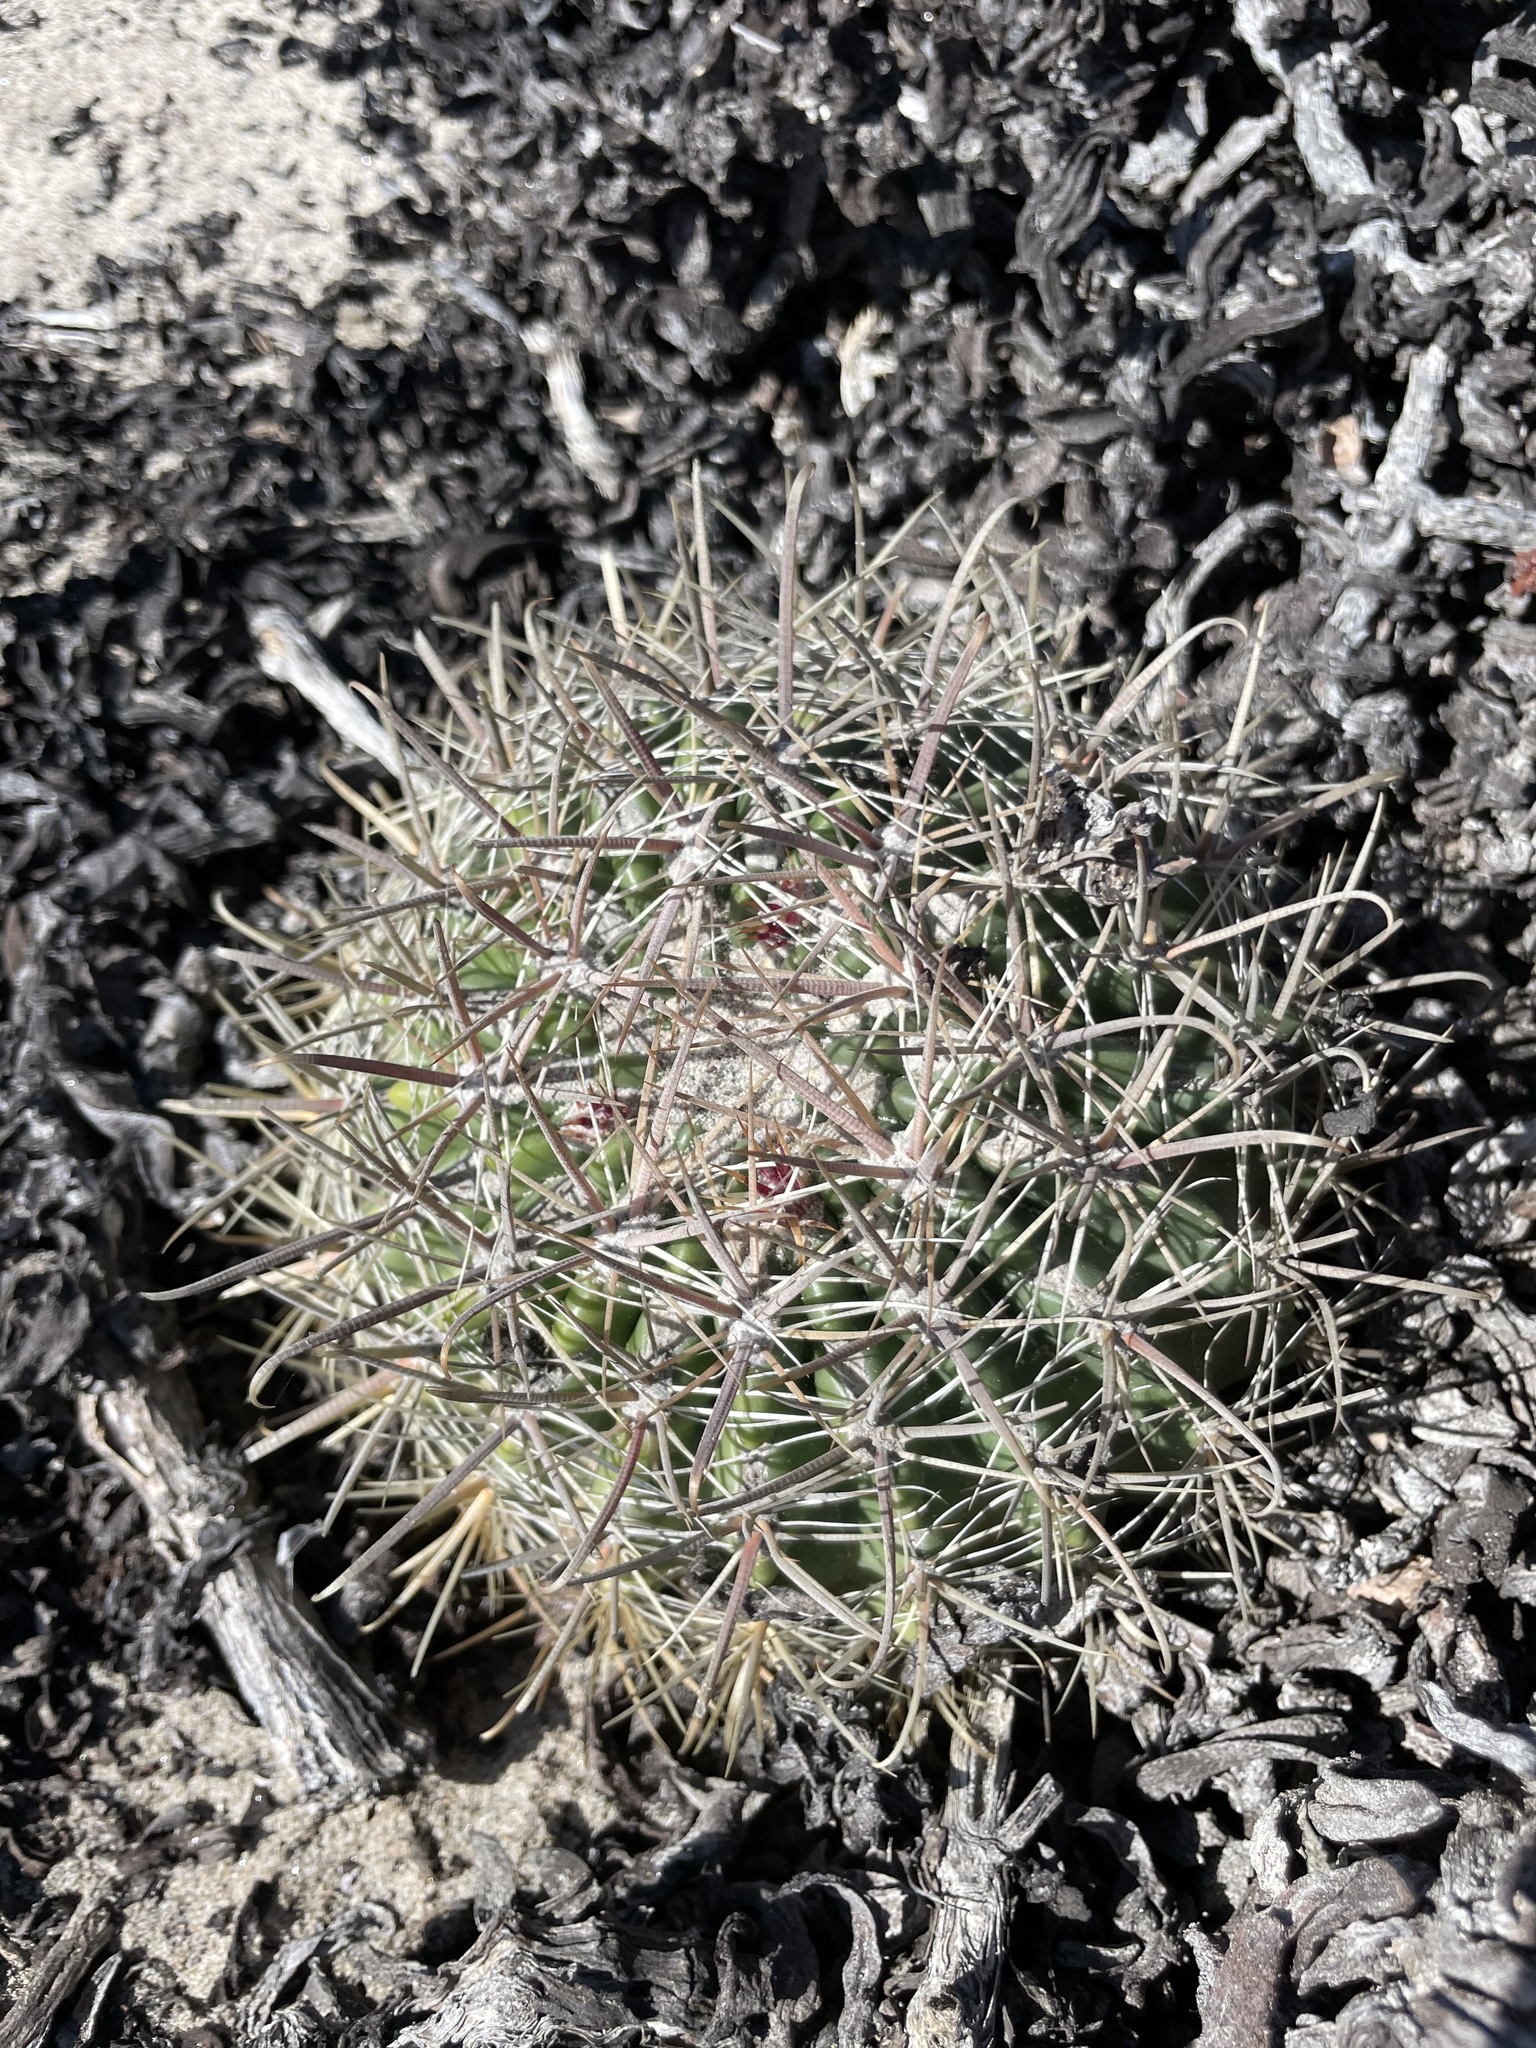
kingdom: Plantae
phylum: Tracheophyta
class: Magnoliopsida
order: Caryophyllales
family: Cactaceae
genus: Ferocactus
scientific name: Ferocactus fordii
